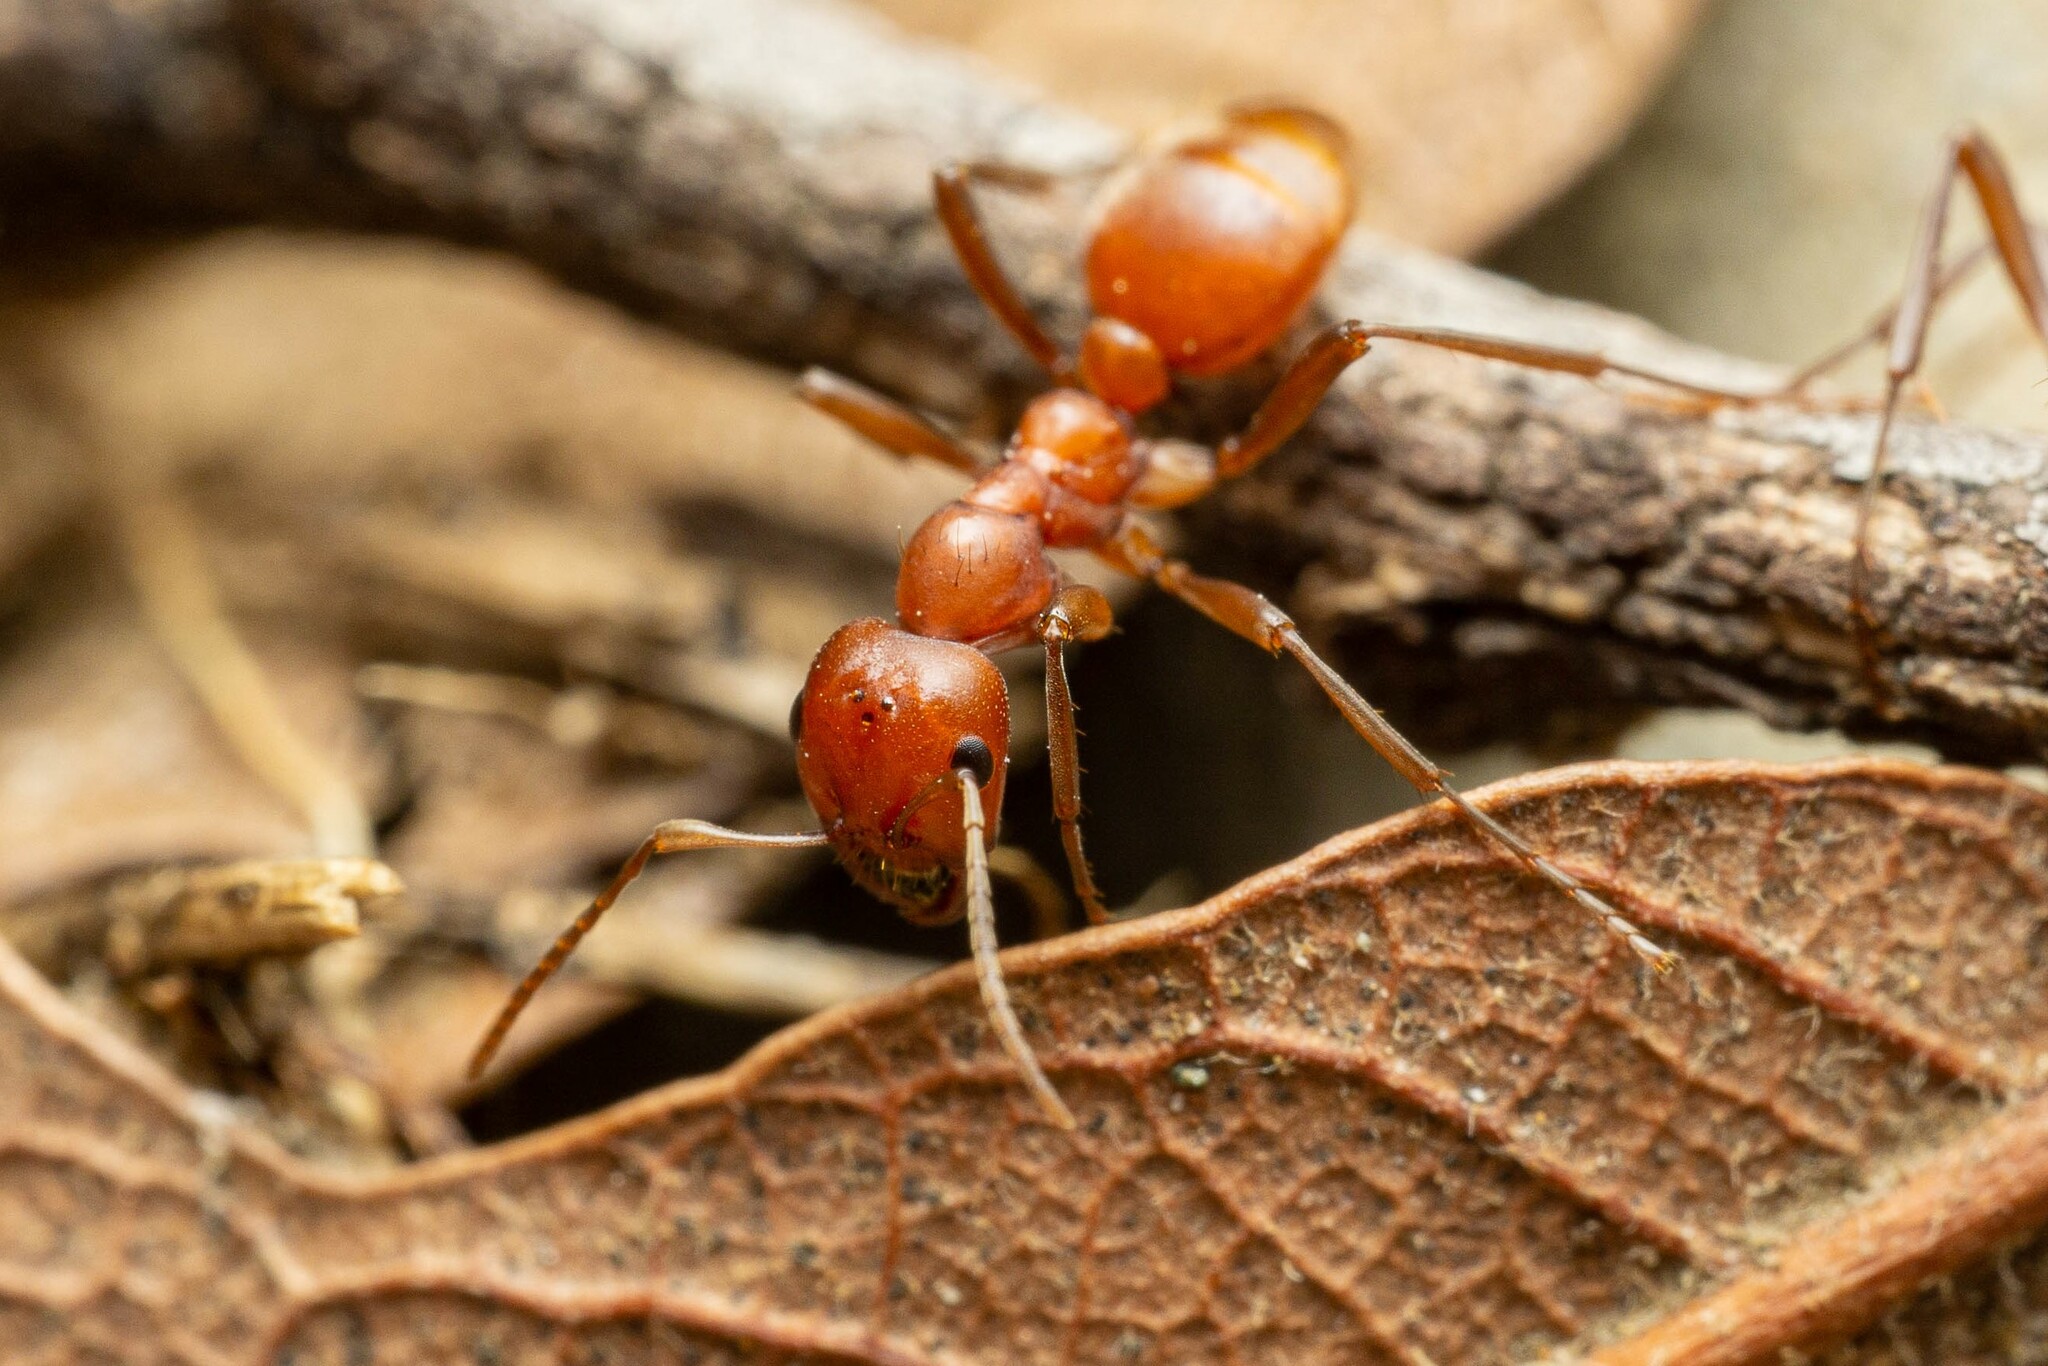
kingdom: Animalia
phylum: Arthropoda
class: Insecta
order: Hymenoptera
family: Formicidae
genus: Polyergus
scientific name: Polyergus topoffi
